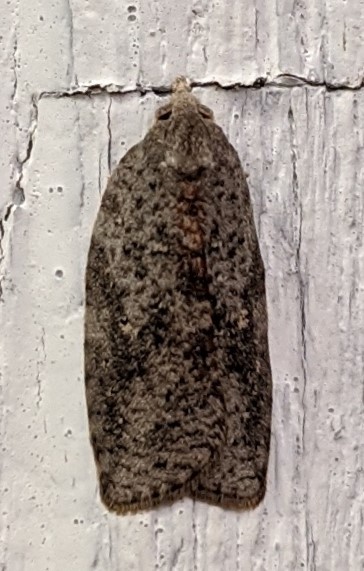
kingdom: Animalia
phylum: Arthropoda
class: Insecta
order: Lepidoptera
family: Tortricidae
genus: Amorbia
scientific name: Amorbia humerosana
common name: White-lined leafroller moth
